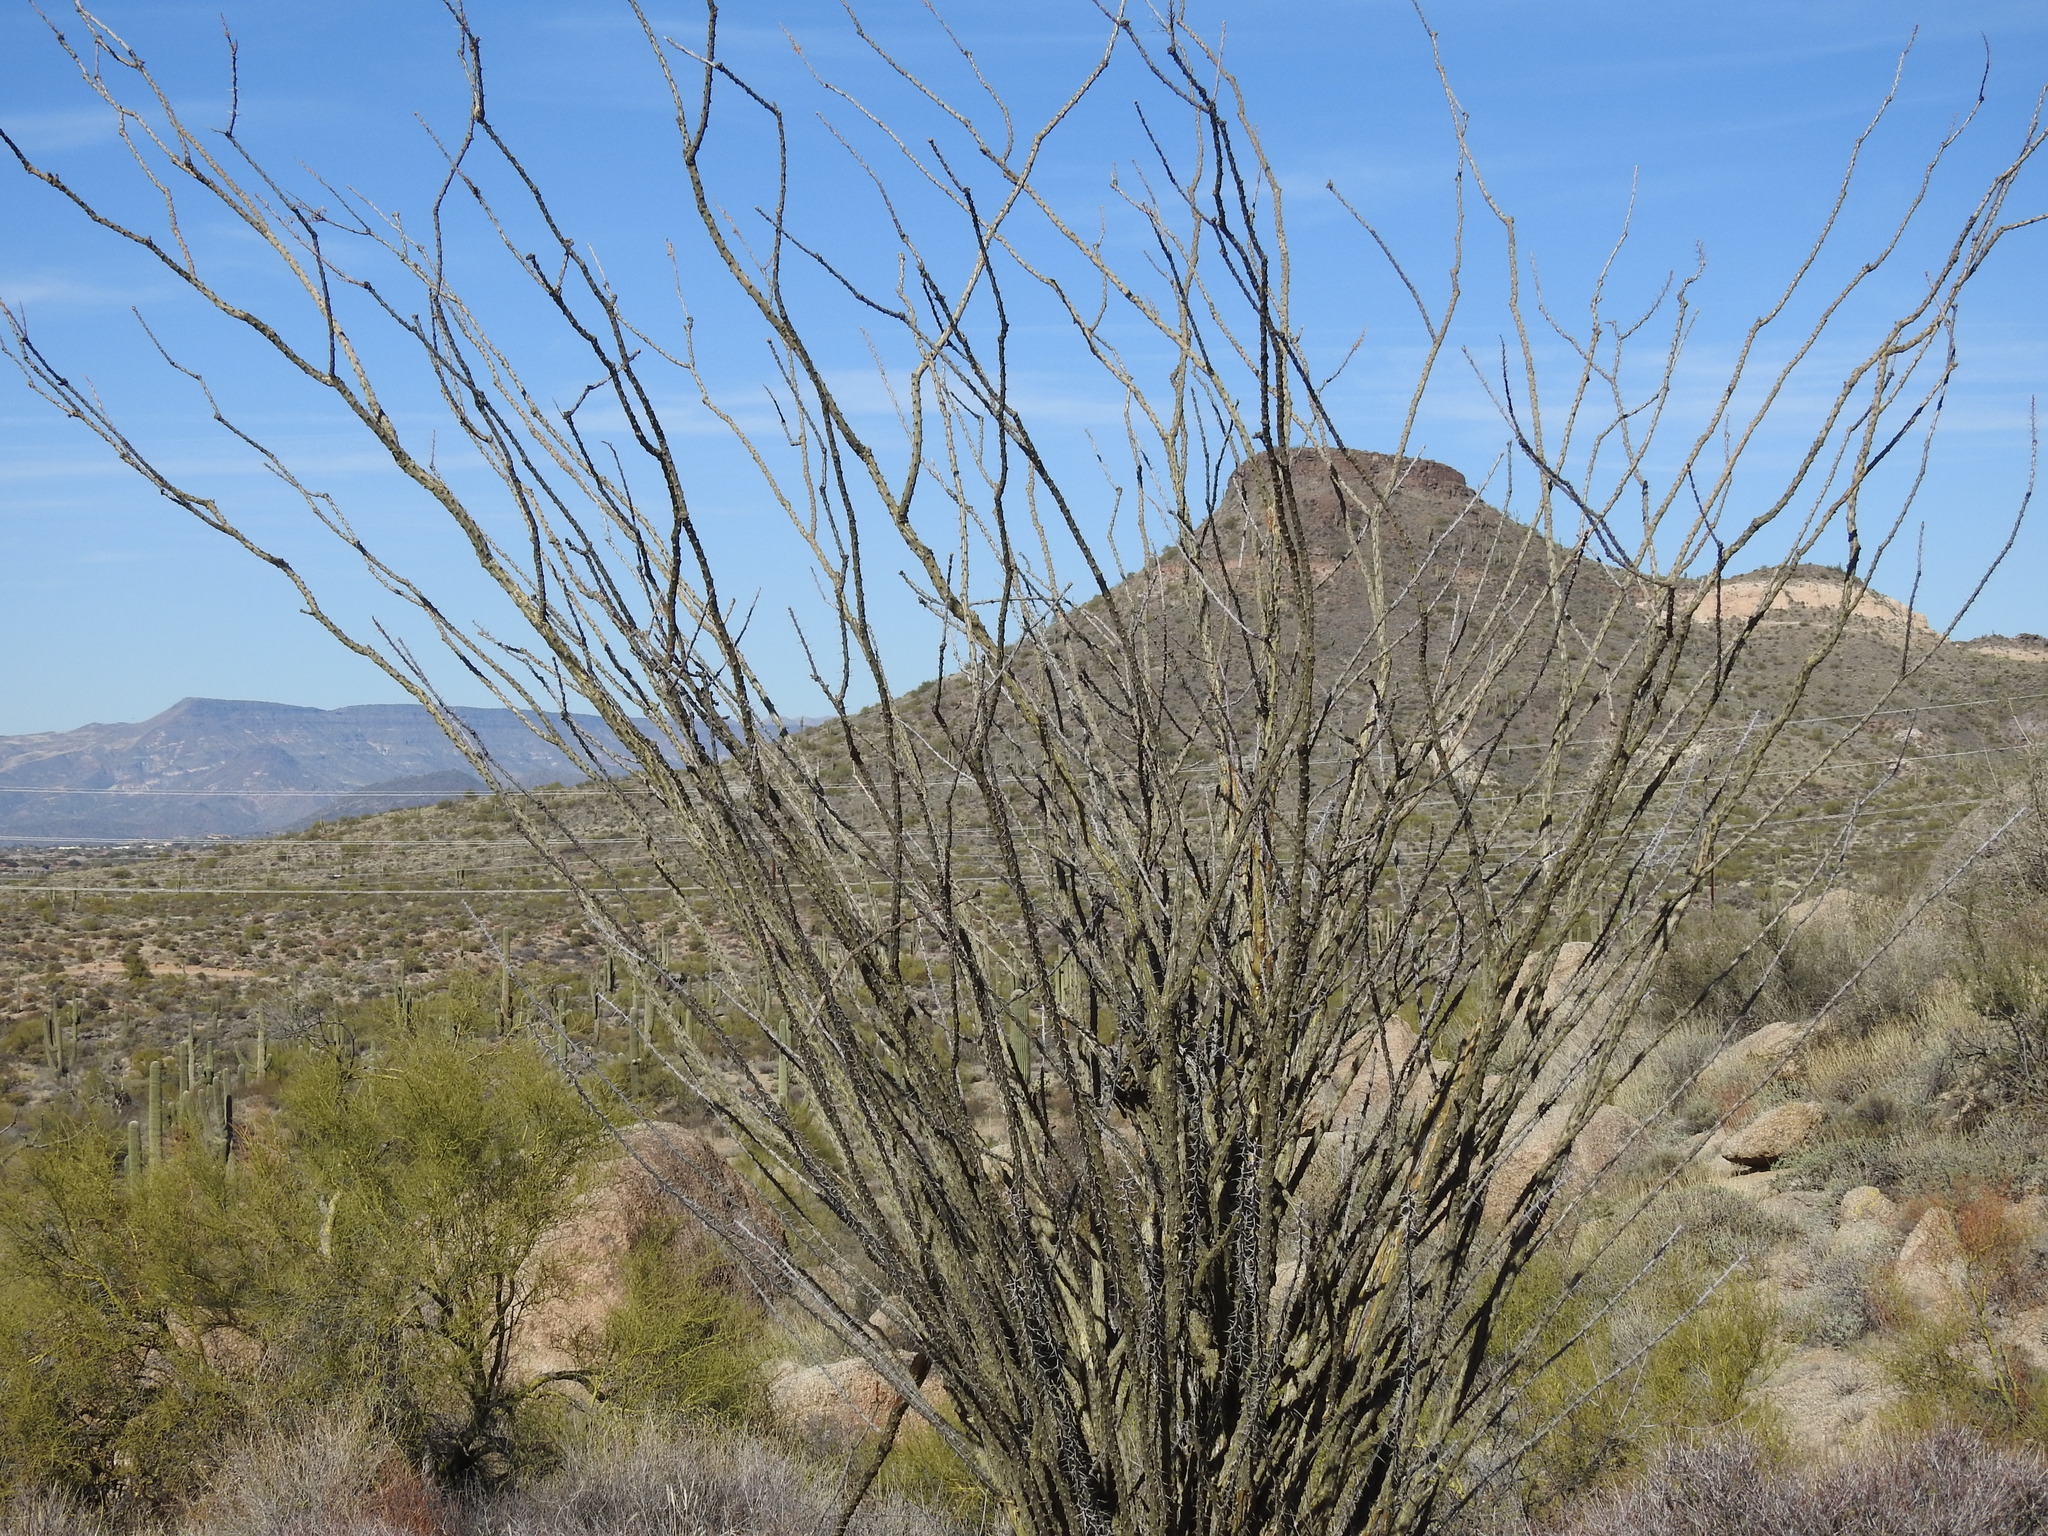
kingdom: Plantae
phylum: Tracheophyta
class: Magnoliopsida
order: Ericales
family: Fouquieriaceae
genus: Fouquieria
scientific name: Fouquieria splendens
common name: Vine-cactus
